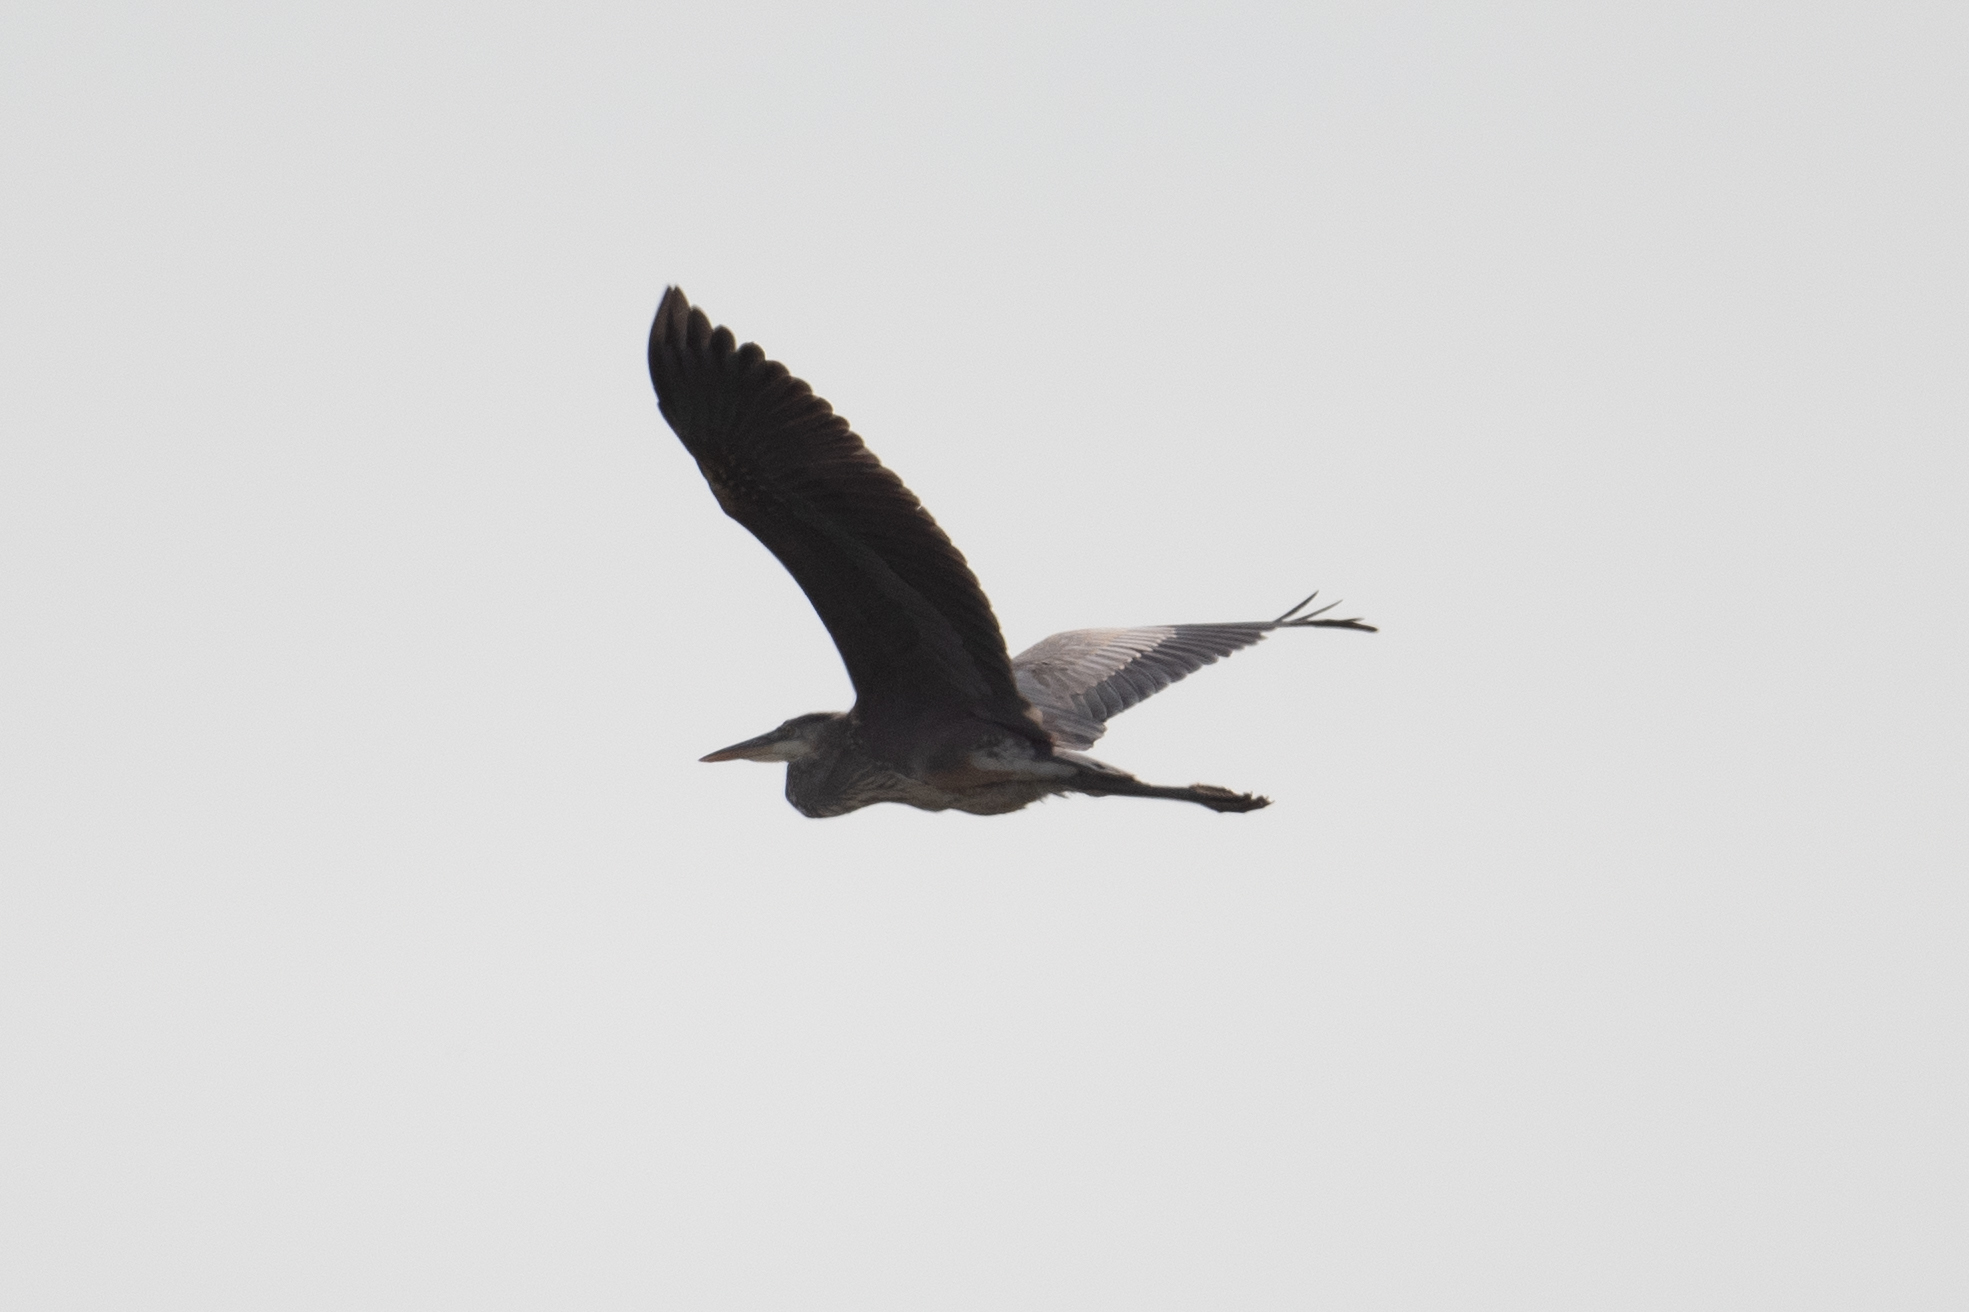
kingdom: Animalia
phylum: Chordata
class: Aves
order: Pelecaniformes
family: Ardeidae
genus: Ardea
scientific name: Ardea herodias
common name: Great blue heron
